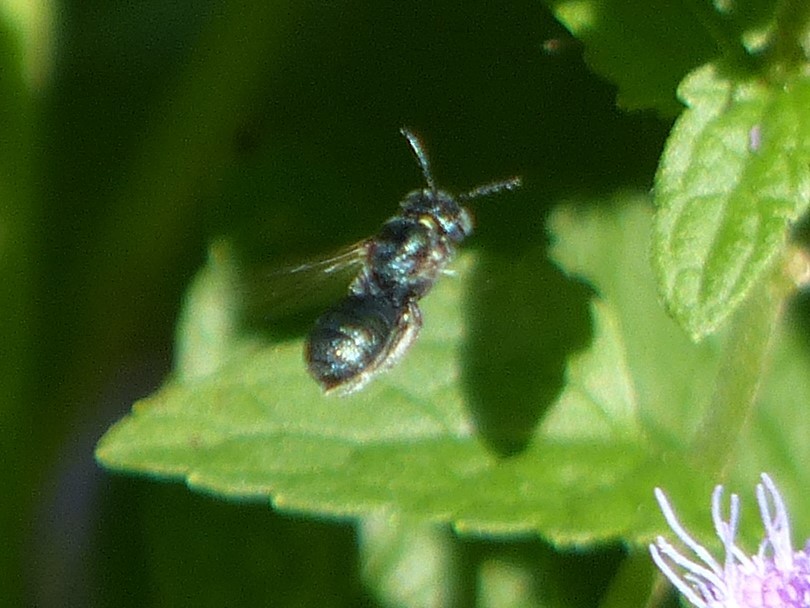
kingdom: Animalia
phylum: Arthropoda
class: Insecta
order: Hymenoptera
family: Apidae
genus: Ceratina
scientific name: Ceratina
